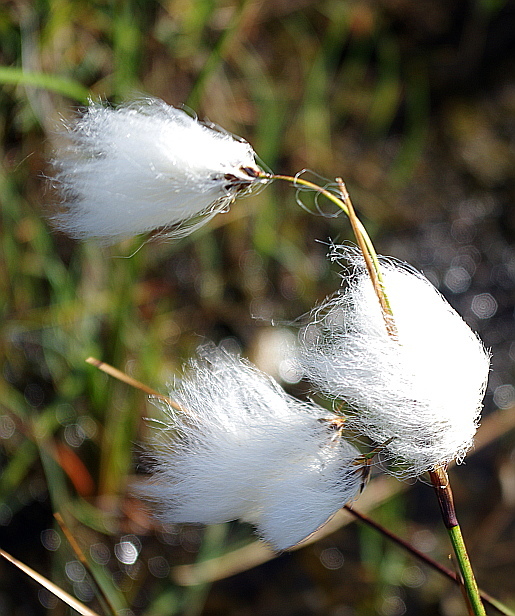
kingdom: Plantae
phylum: Tracheophyta
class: Liliopsida
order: Poales
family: Cyperaceae
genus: Eriophorum
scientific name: Eriophorum angustifolium
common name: Common cottongrass
